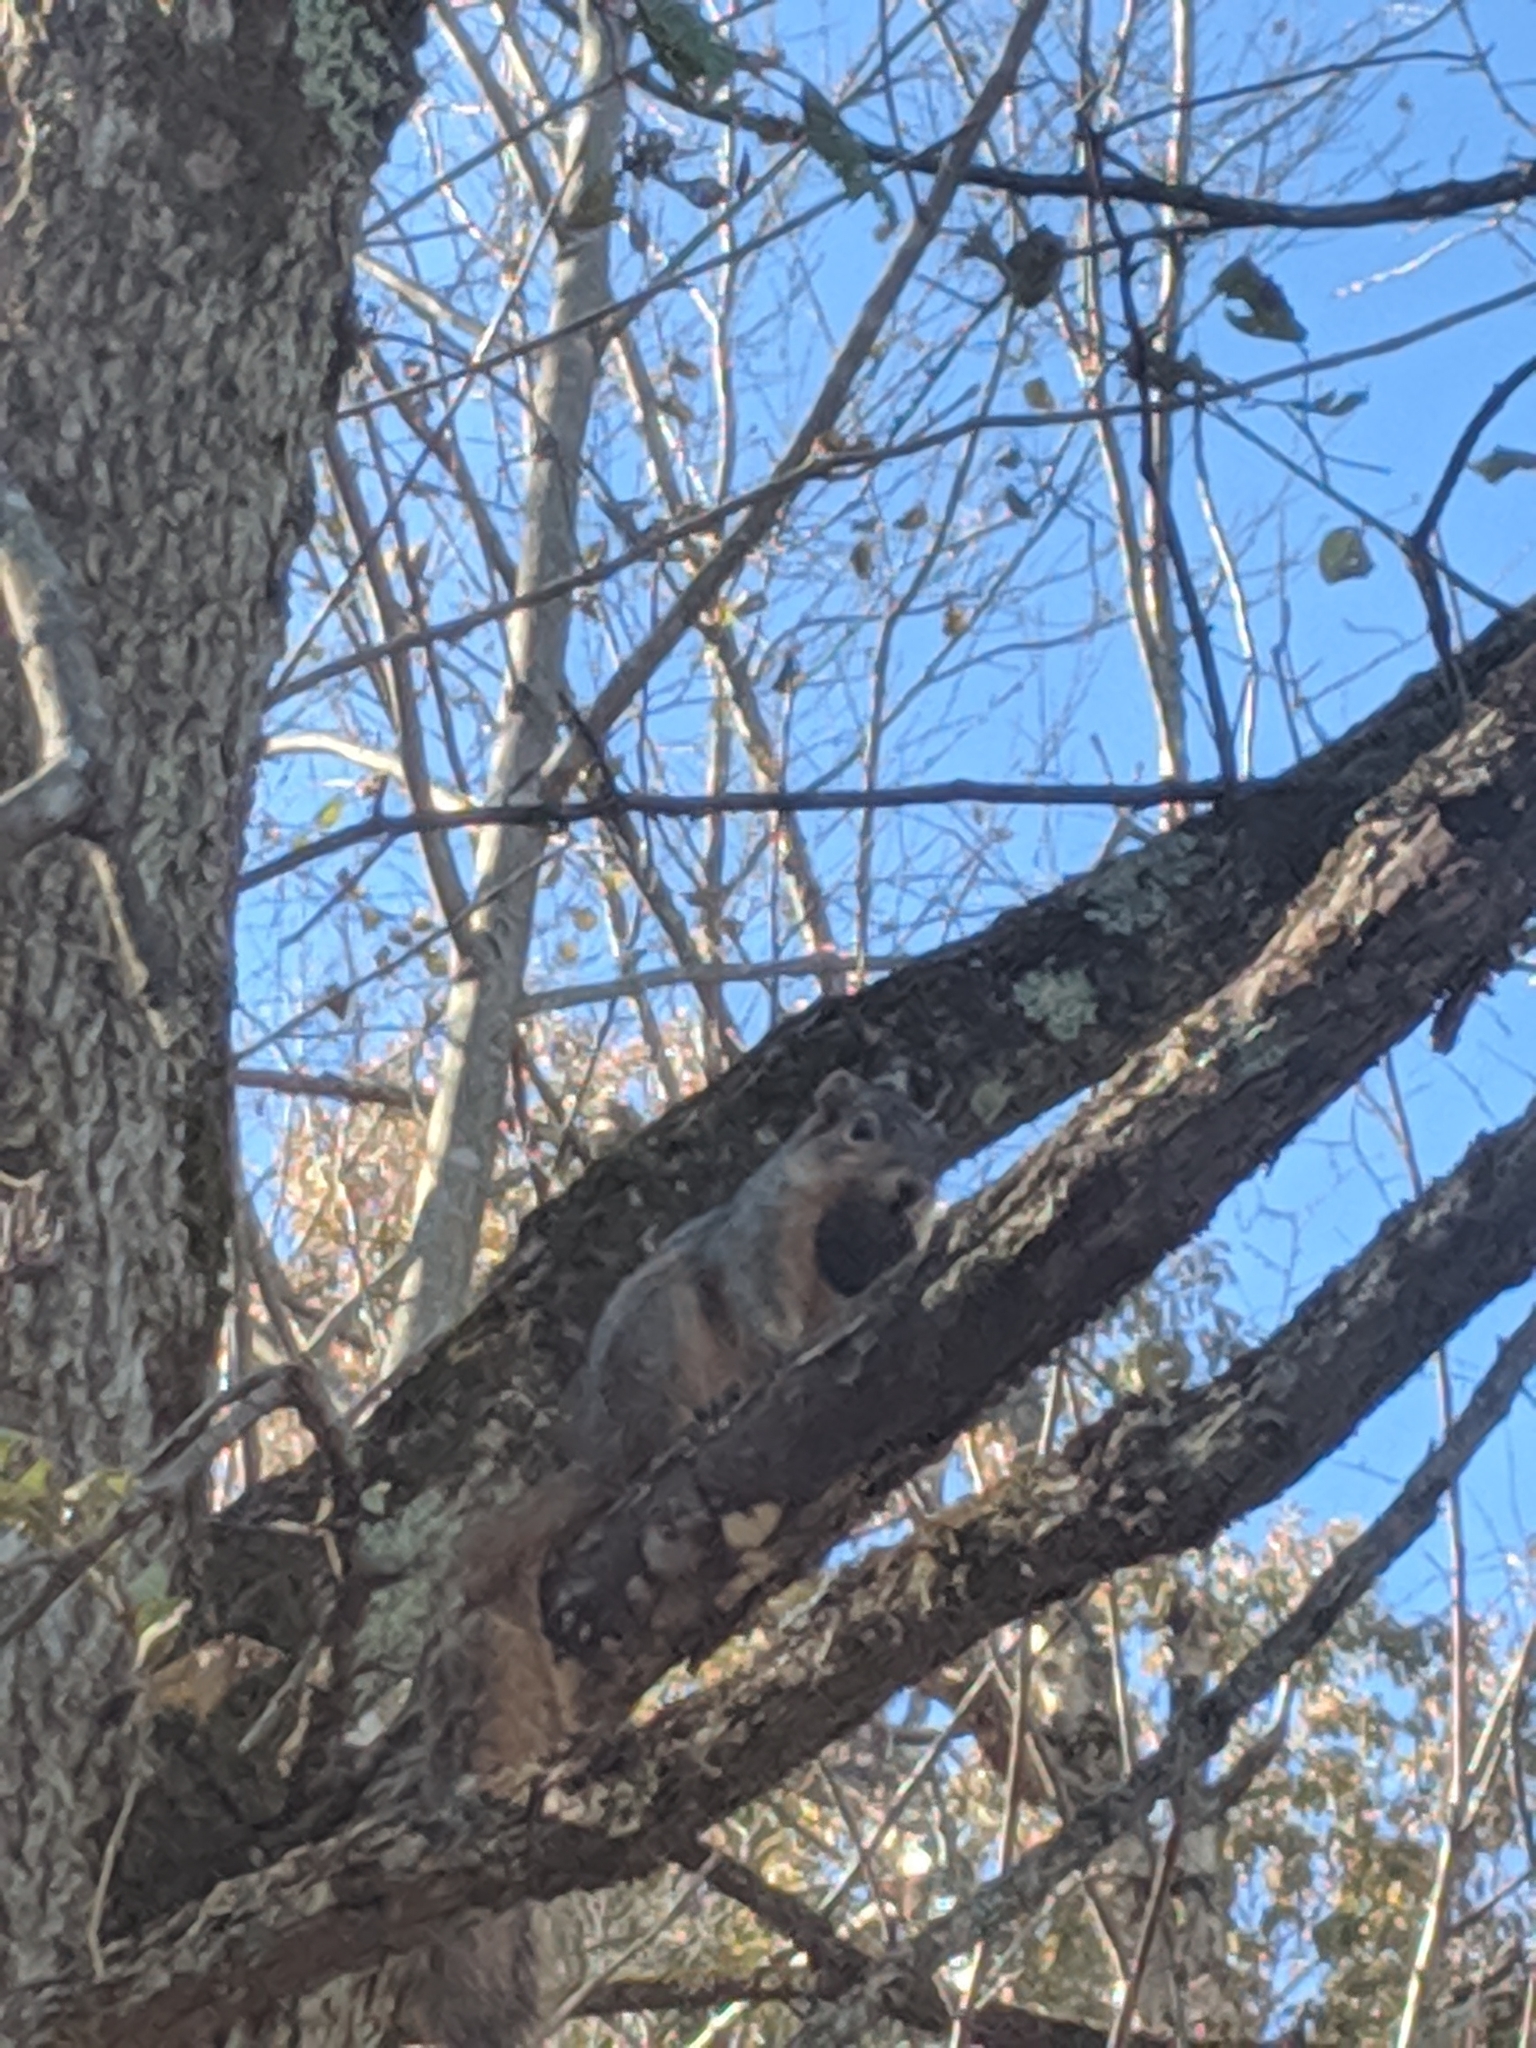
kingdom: Animalia
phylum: Chordata
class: Mammalia
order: Rodentia
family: Sciuridae
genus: Sciurus
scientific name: Sciurus niger
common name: Fox squirrel
